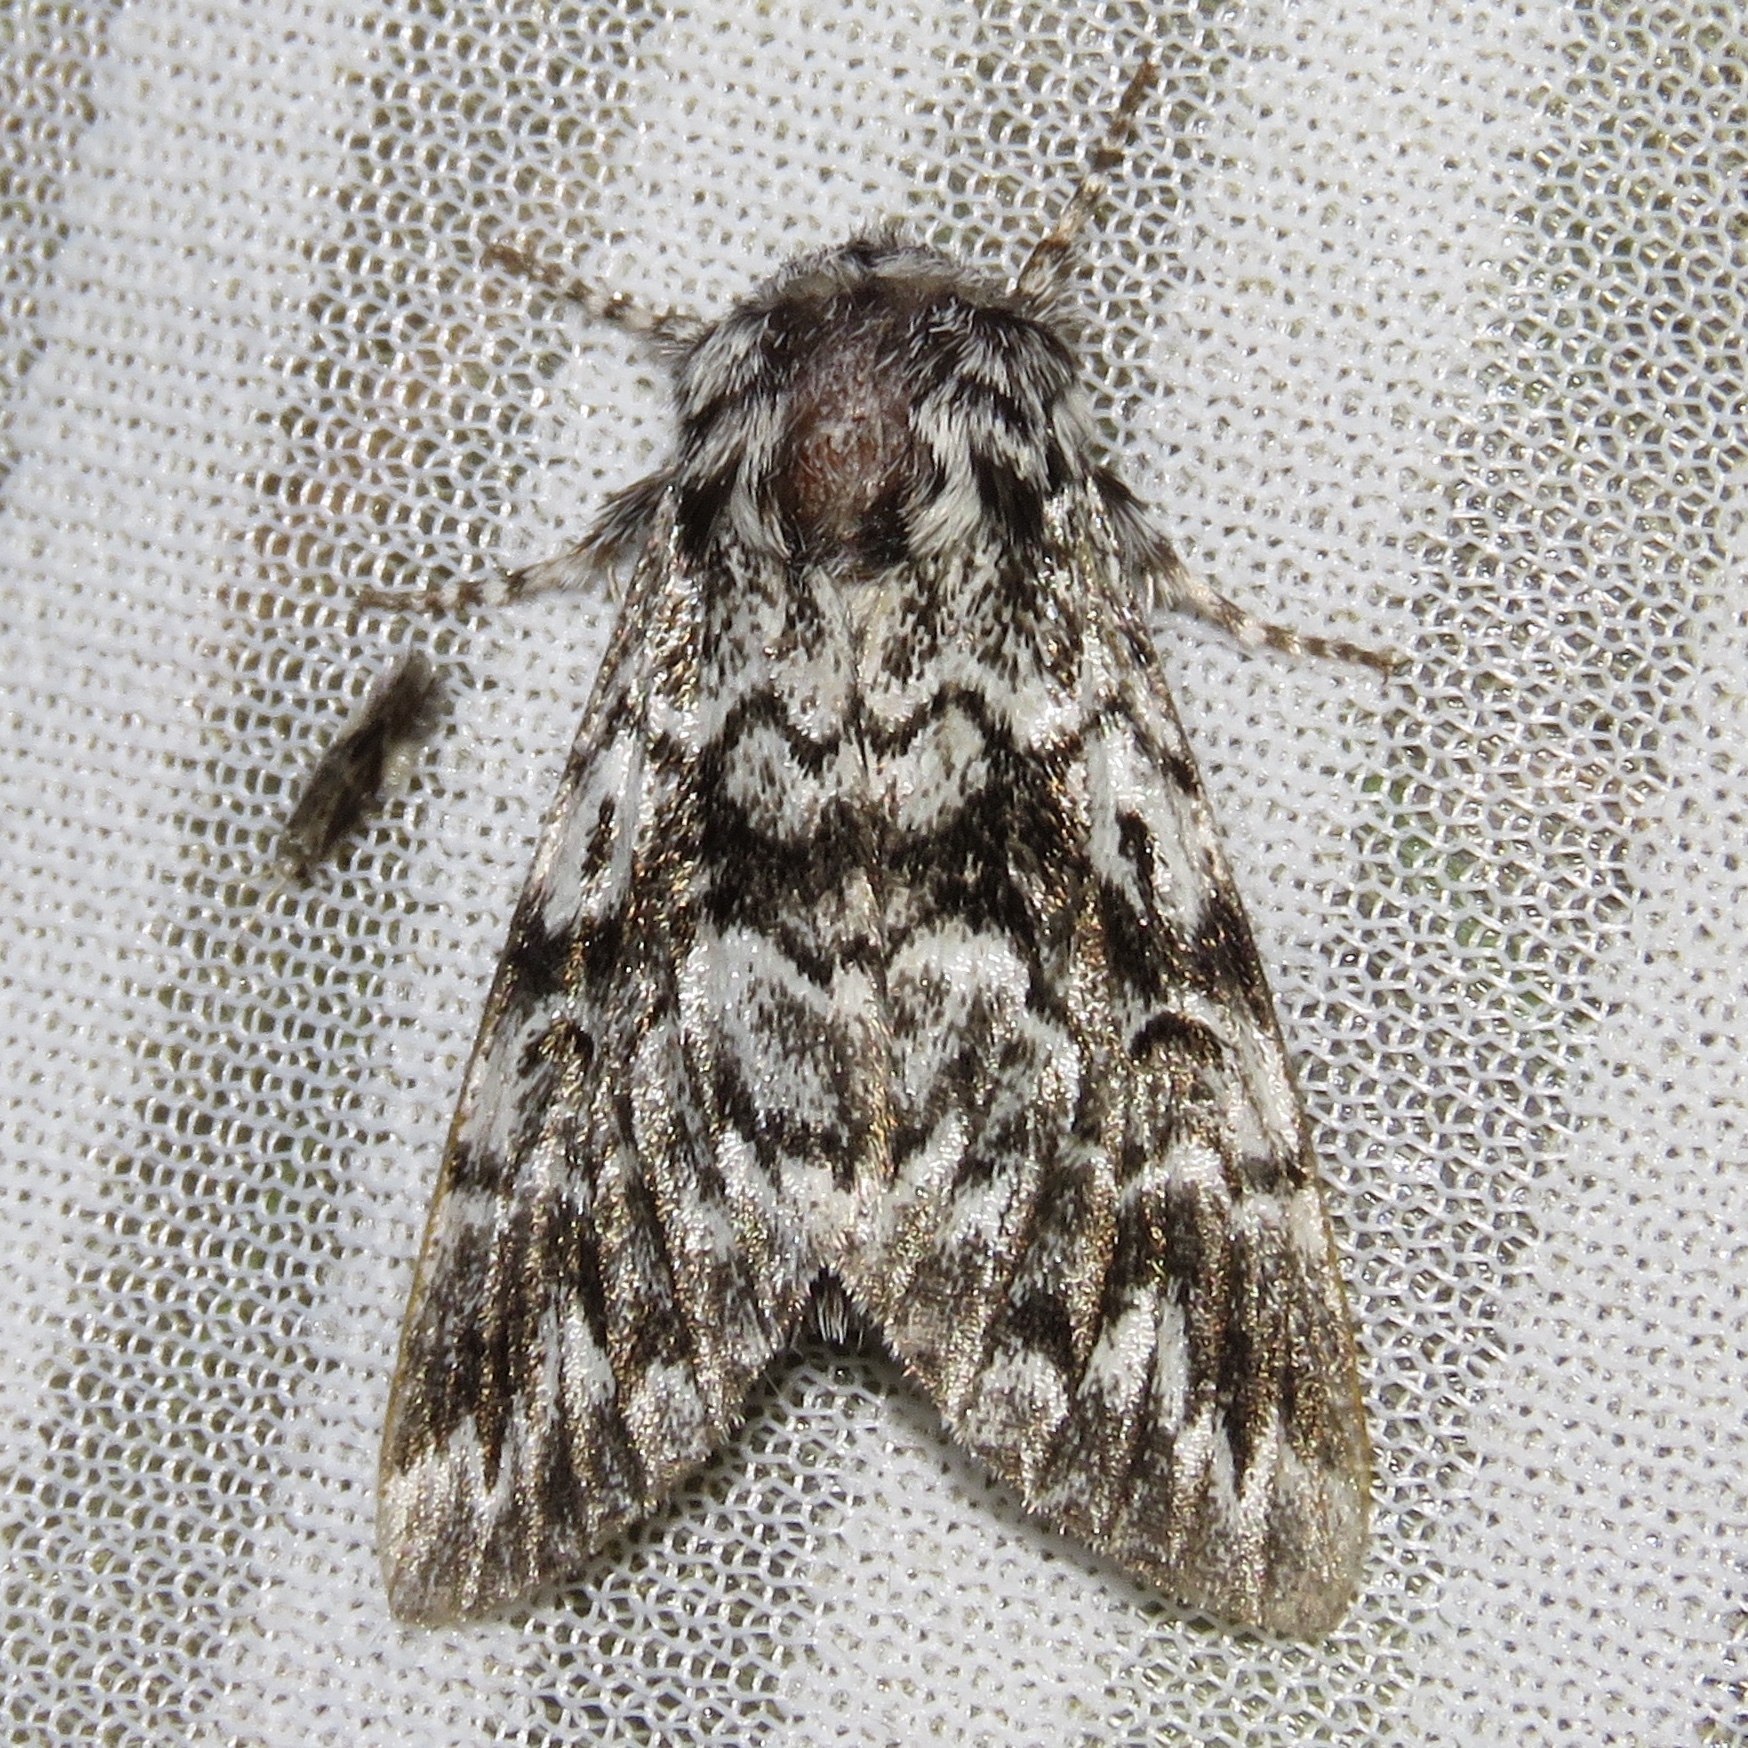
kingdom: Animalia
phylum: Arthropoda
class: Insecta
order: Lepidoptera
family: Noctuidae
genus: Panthea
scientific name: Panthea acronyctoides
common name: Black zigzag moth
